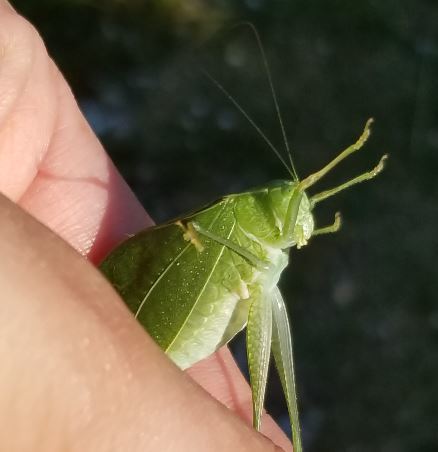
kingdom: Animalia
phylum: Arthropoda
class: Insecta
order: Orthoptera
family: Tettigoniidae
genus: Microcentrum
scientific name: Microcentrum retinerve
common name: Angular-winged katydid
